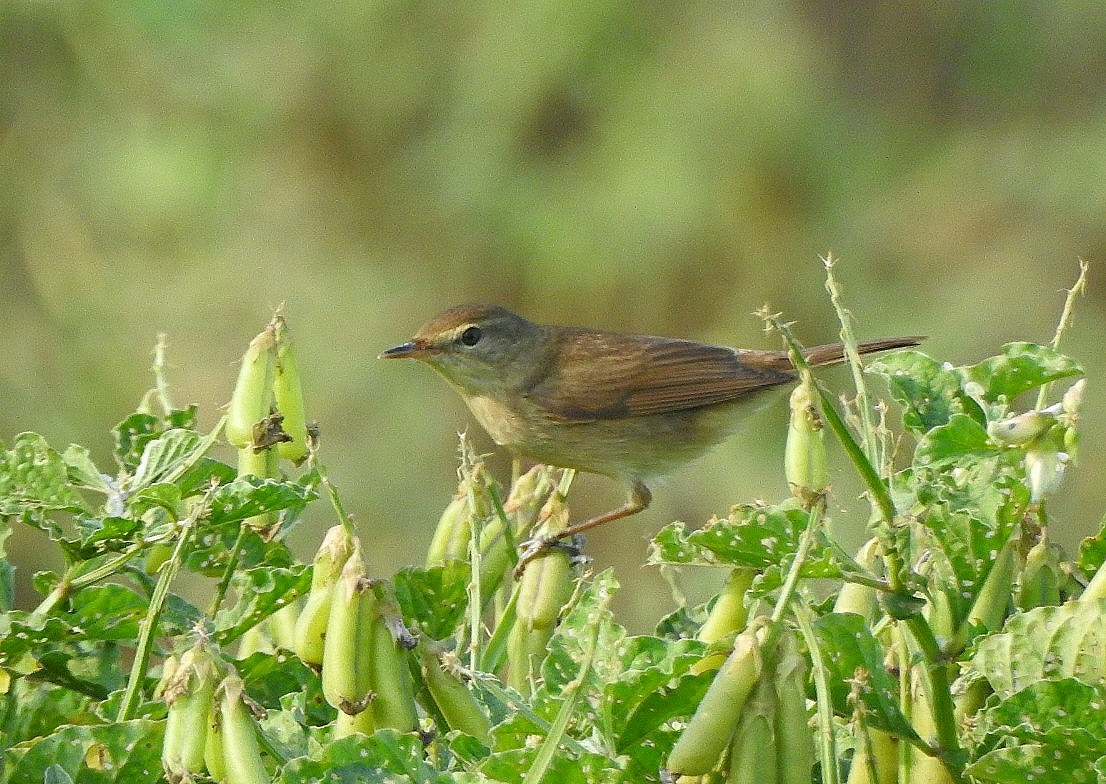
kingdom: Animalia
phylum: Chordata
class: Aves
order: Passeriformes
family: Acrocephalidae
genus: Acrocephalus
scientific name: Acrocephalus dumetorum
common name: Blyth's reed warbler
